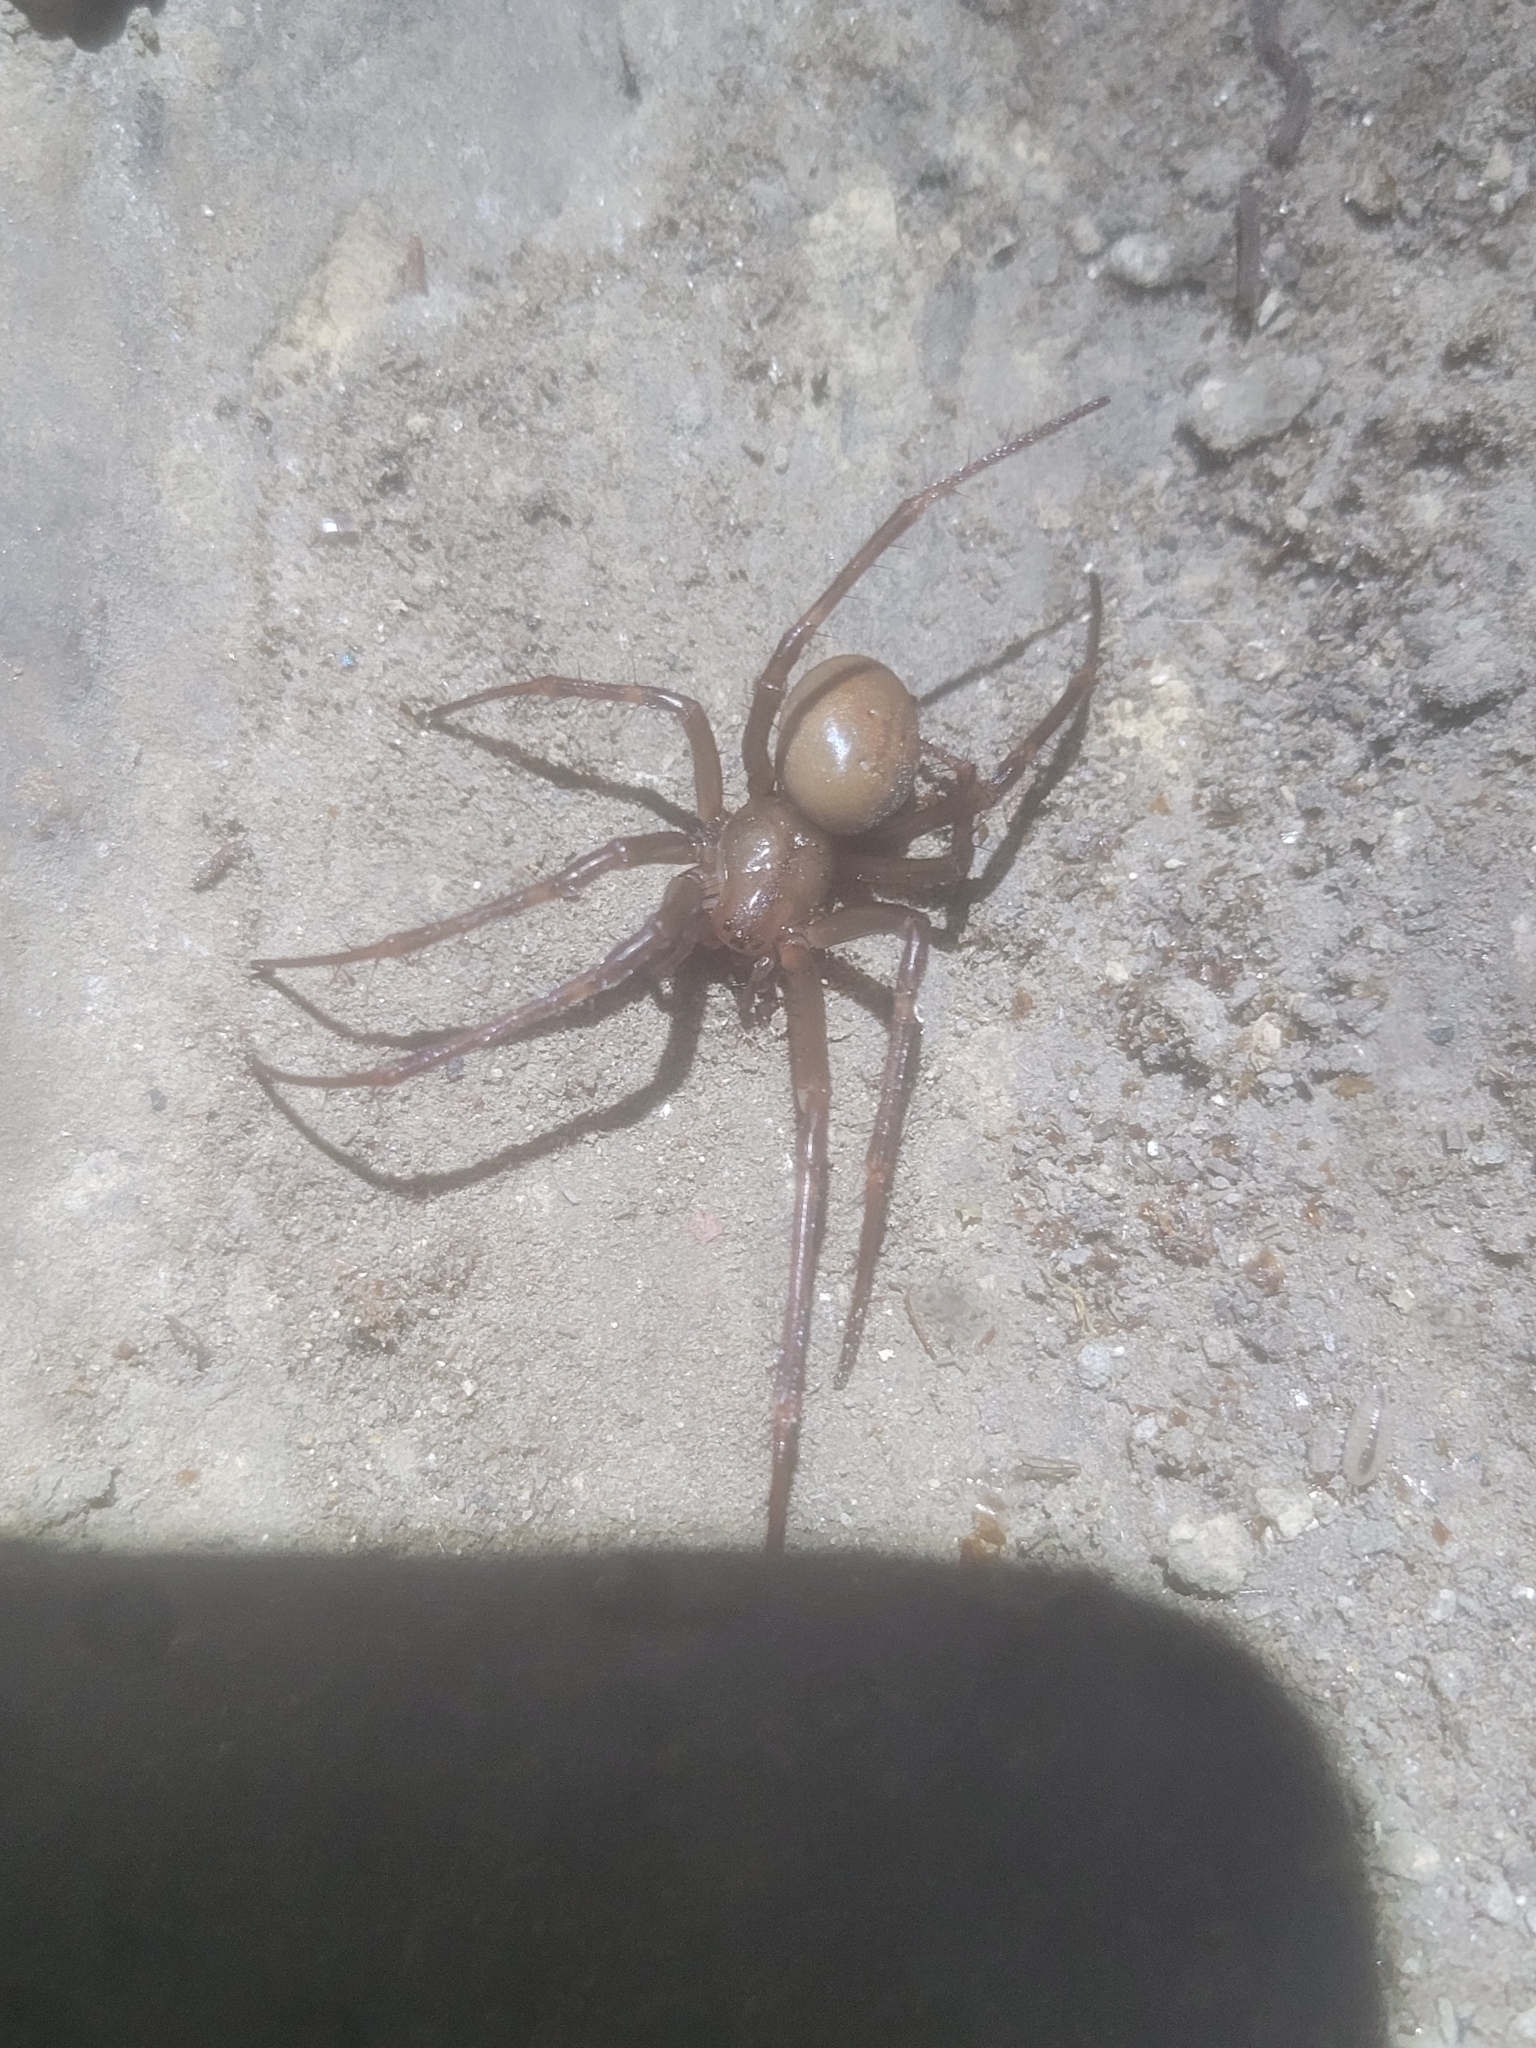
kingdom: Animalia
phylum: Arthropoda
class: Arachnida
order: Araneae
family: Tetragnathidae
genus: Meta
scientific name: Meta bourneti
